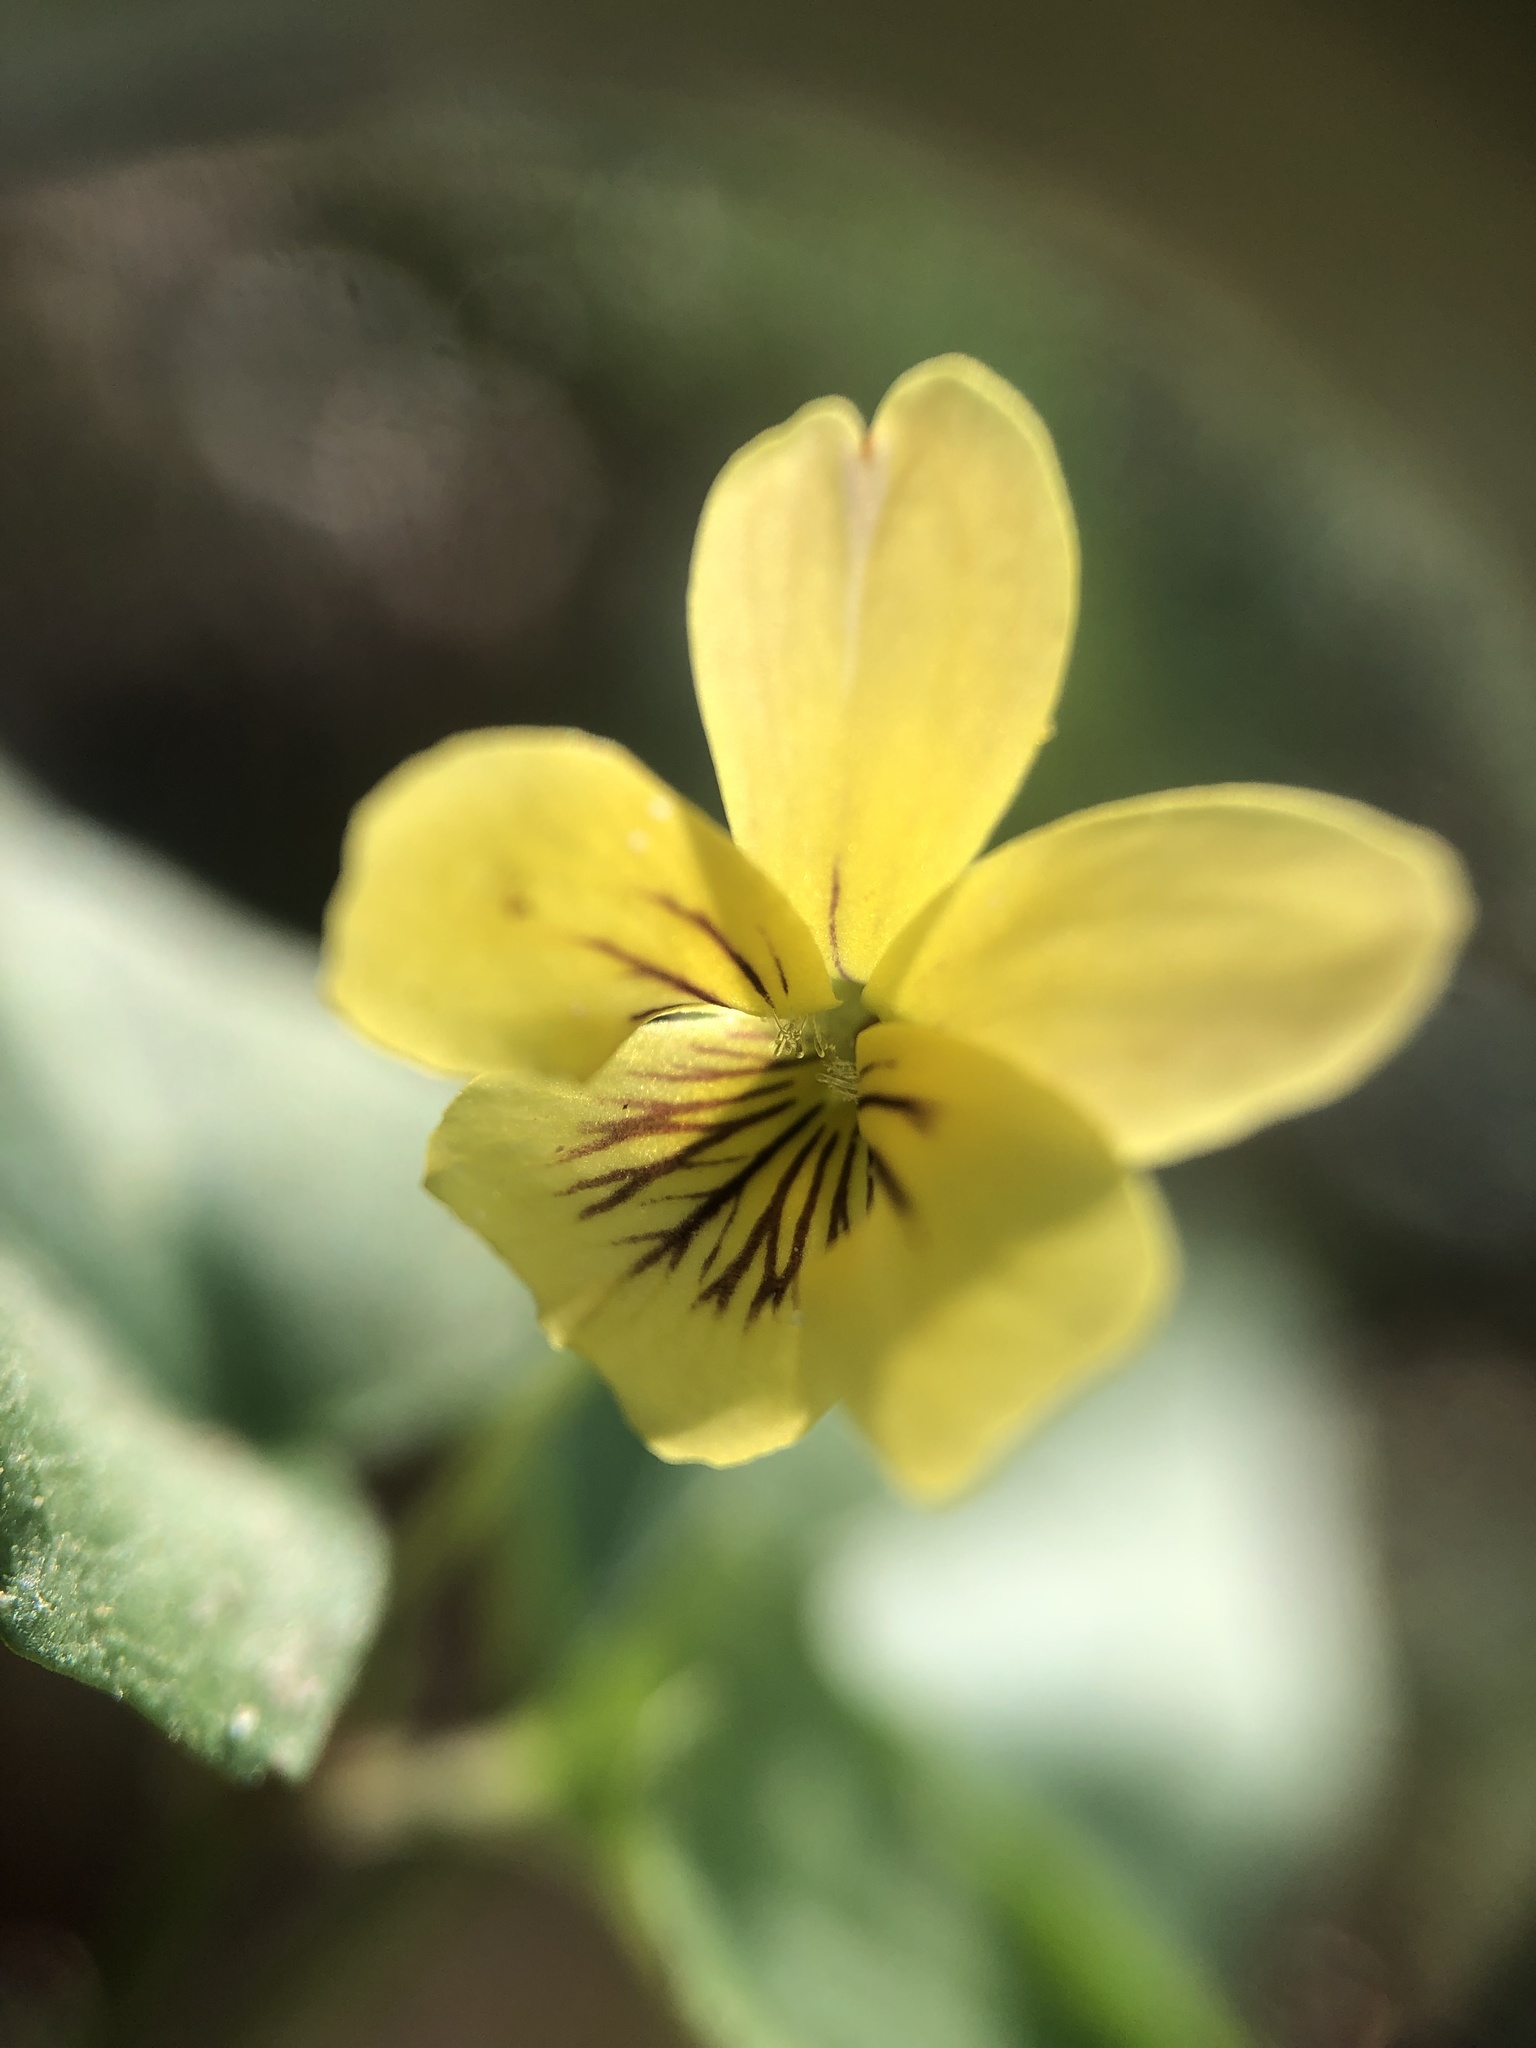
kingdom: Plantae
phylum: Tracheophyta
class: Magnoliopsida
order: Malpighiales
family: Violaceae
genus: Viola
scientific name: Viola hastata
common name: Spear-leaf violet
